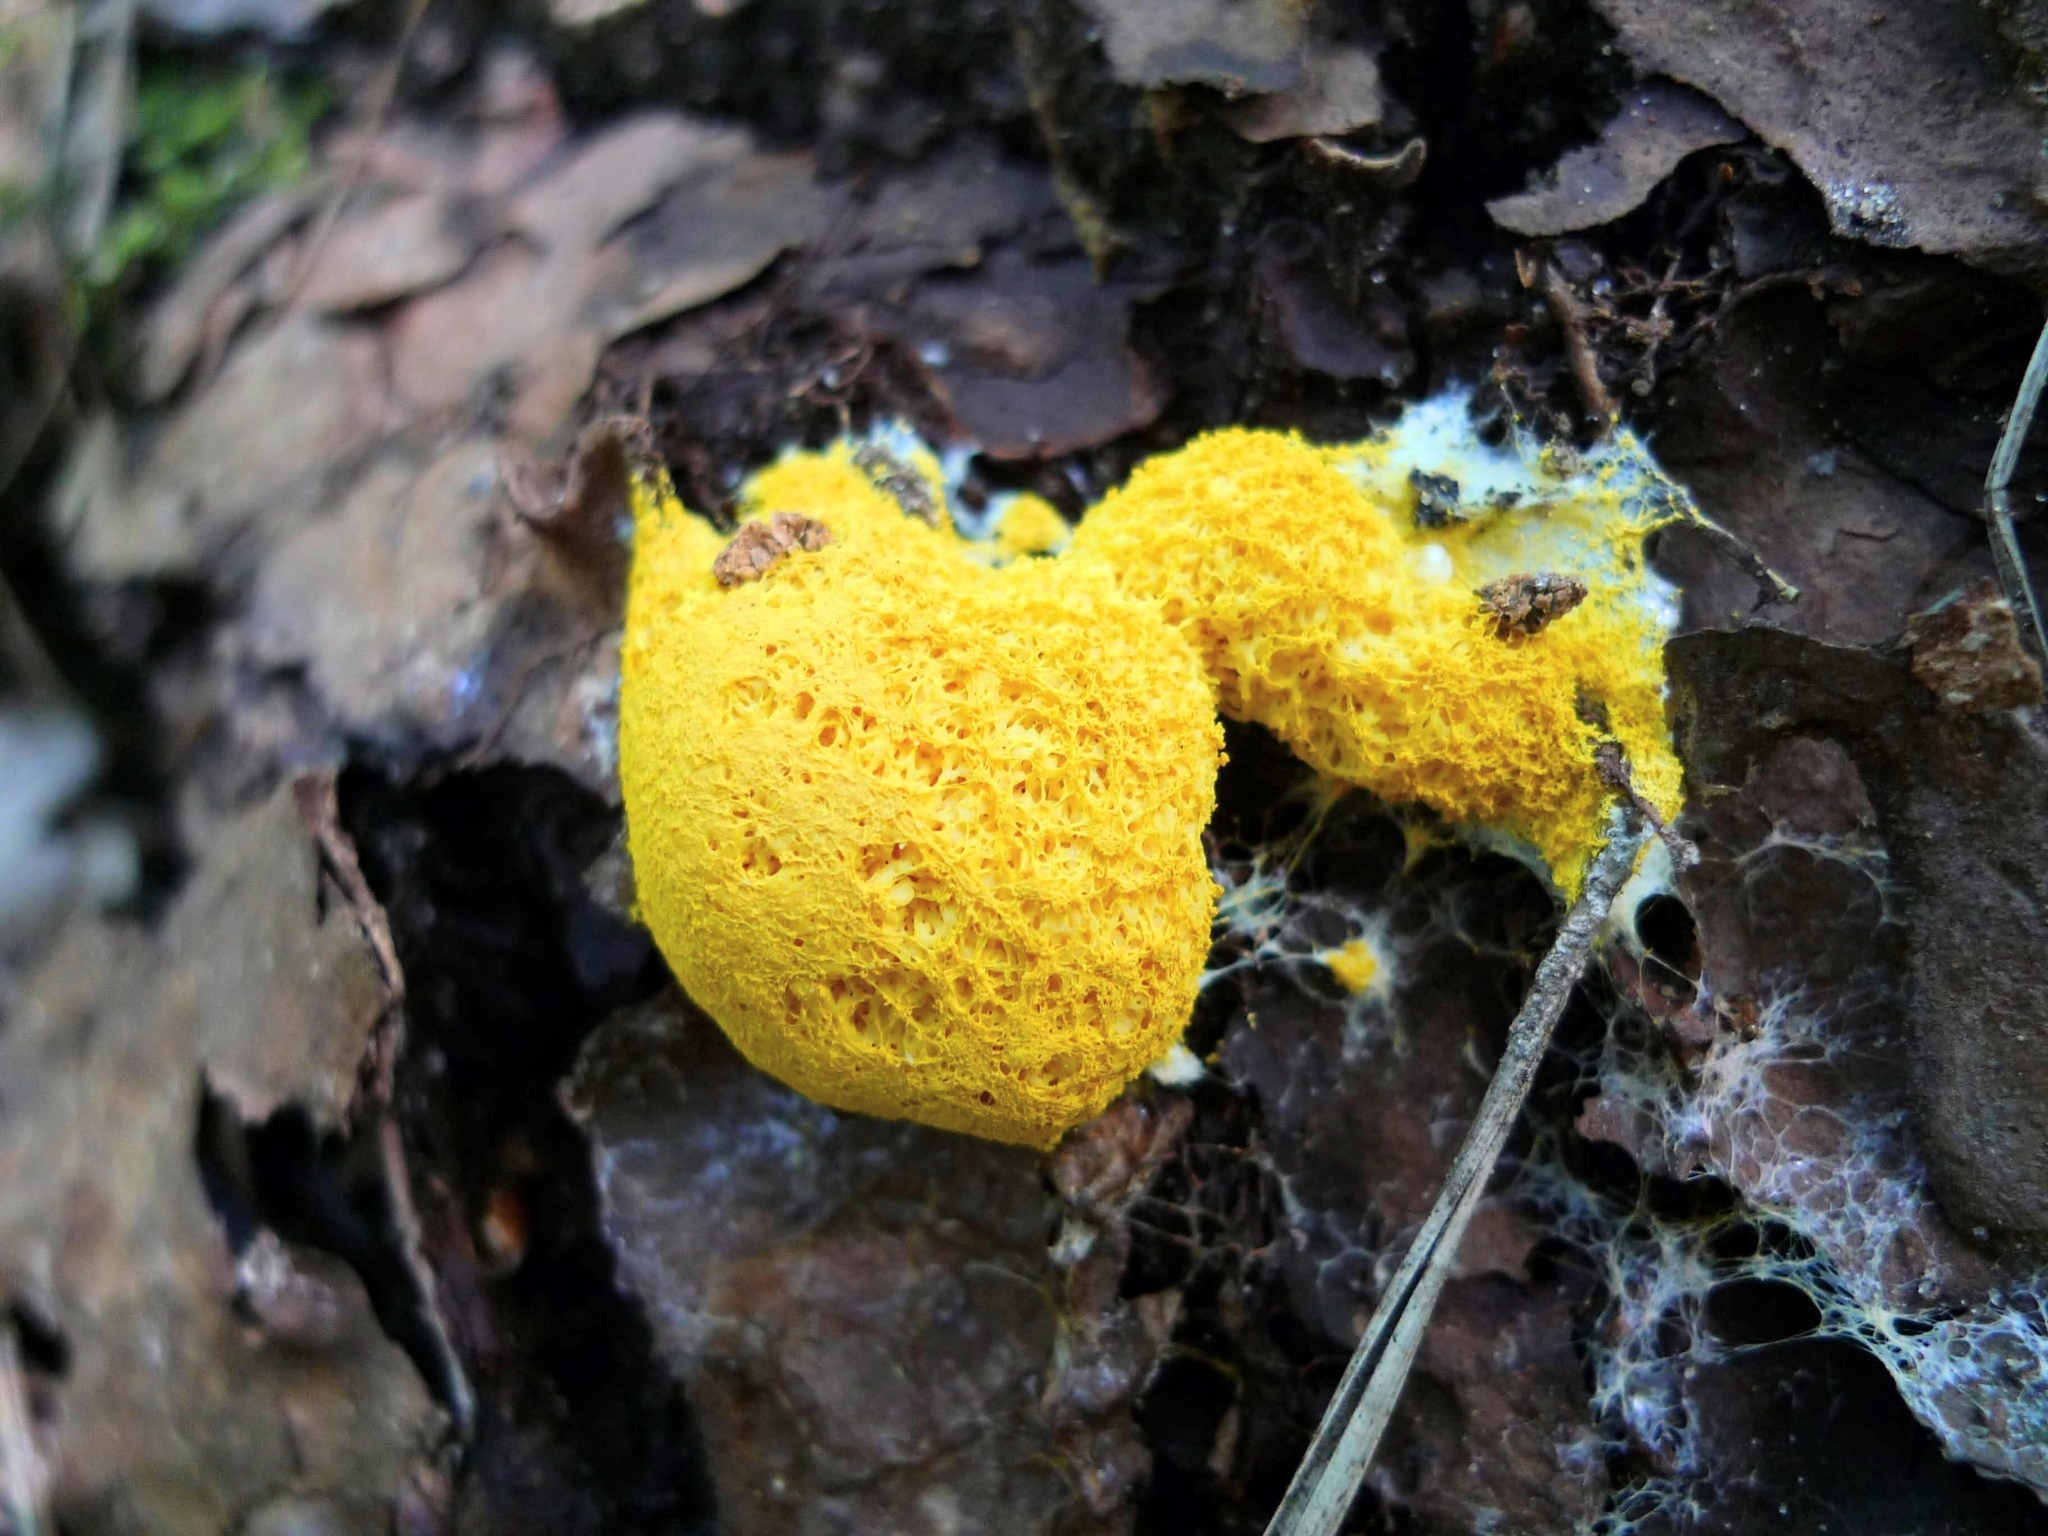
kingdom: Protozoa
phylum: Mycetozoa
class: Myxomycetes
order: Physarales
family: Physaraceae
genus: Fuligo
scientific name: Fuligo septica
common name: Dog vomit slime mold
